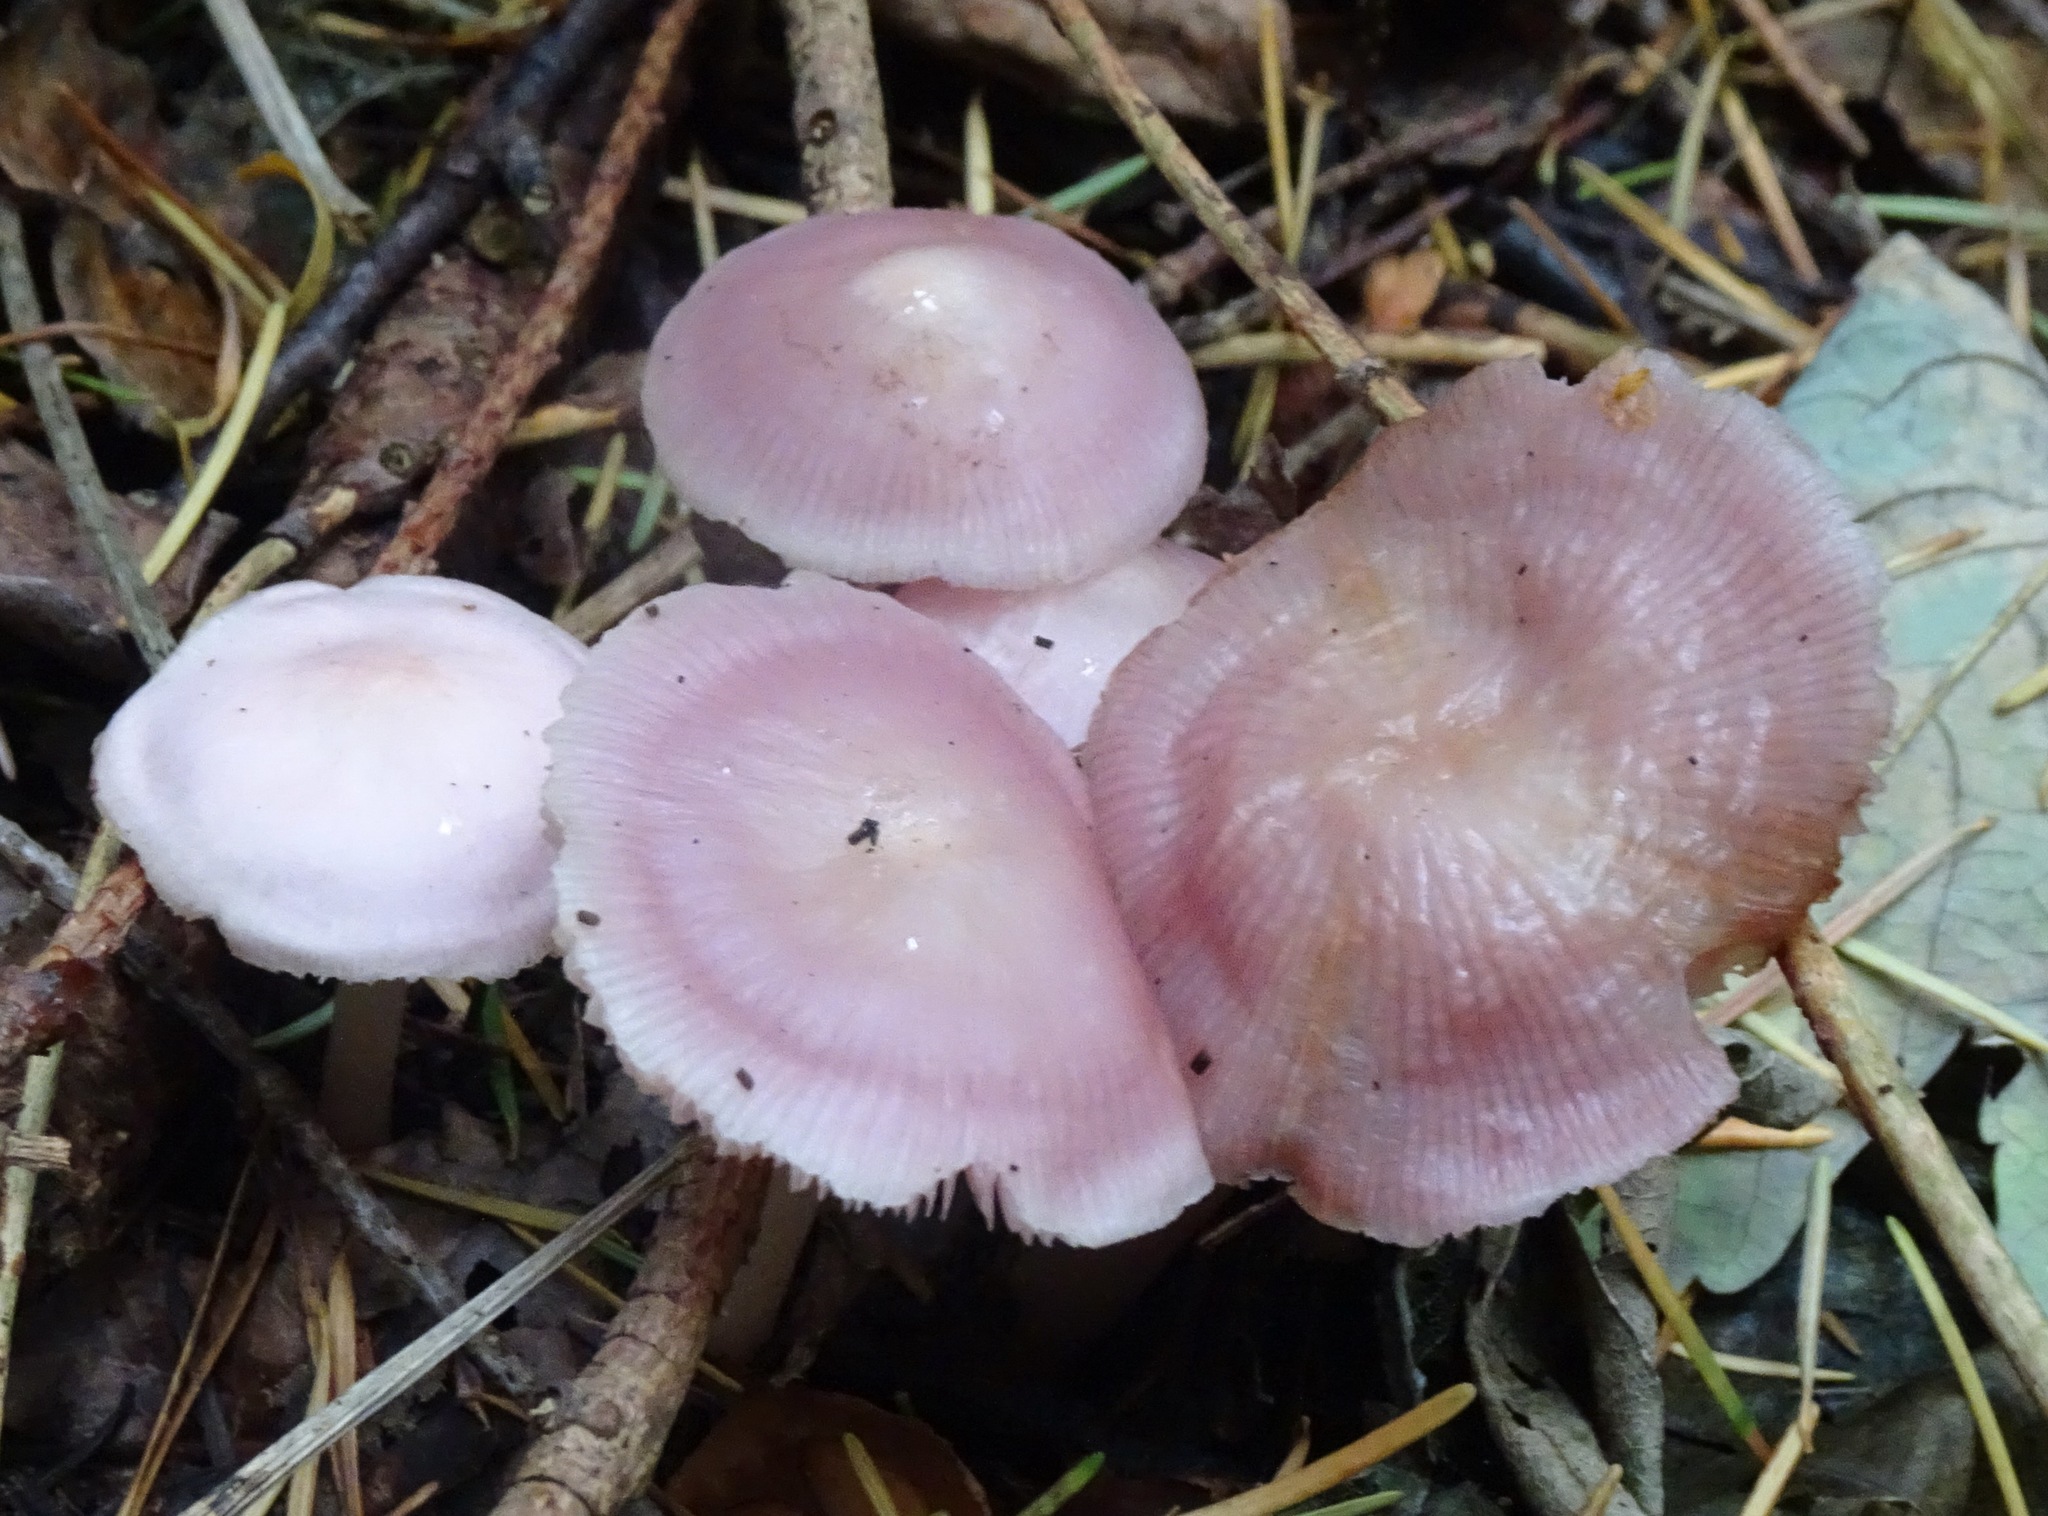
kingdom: Fungi
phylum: Basidiomycota
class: Agaricomycetes
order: Agaricales
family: Mycenaceae
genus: Mycena
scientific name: Mycena rosea
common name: Rosy bonnet
